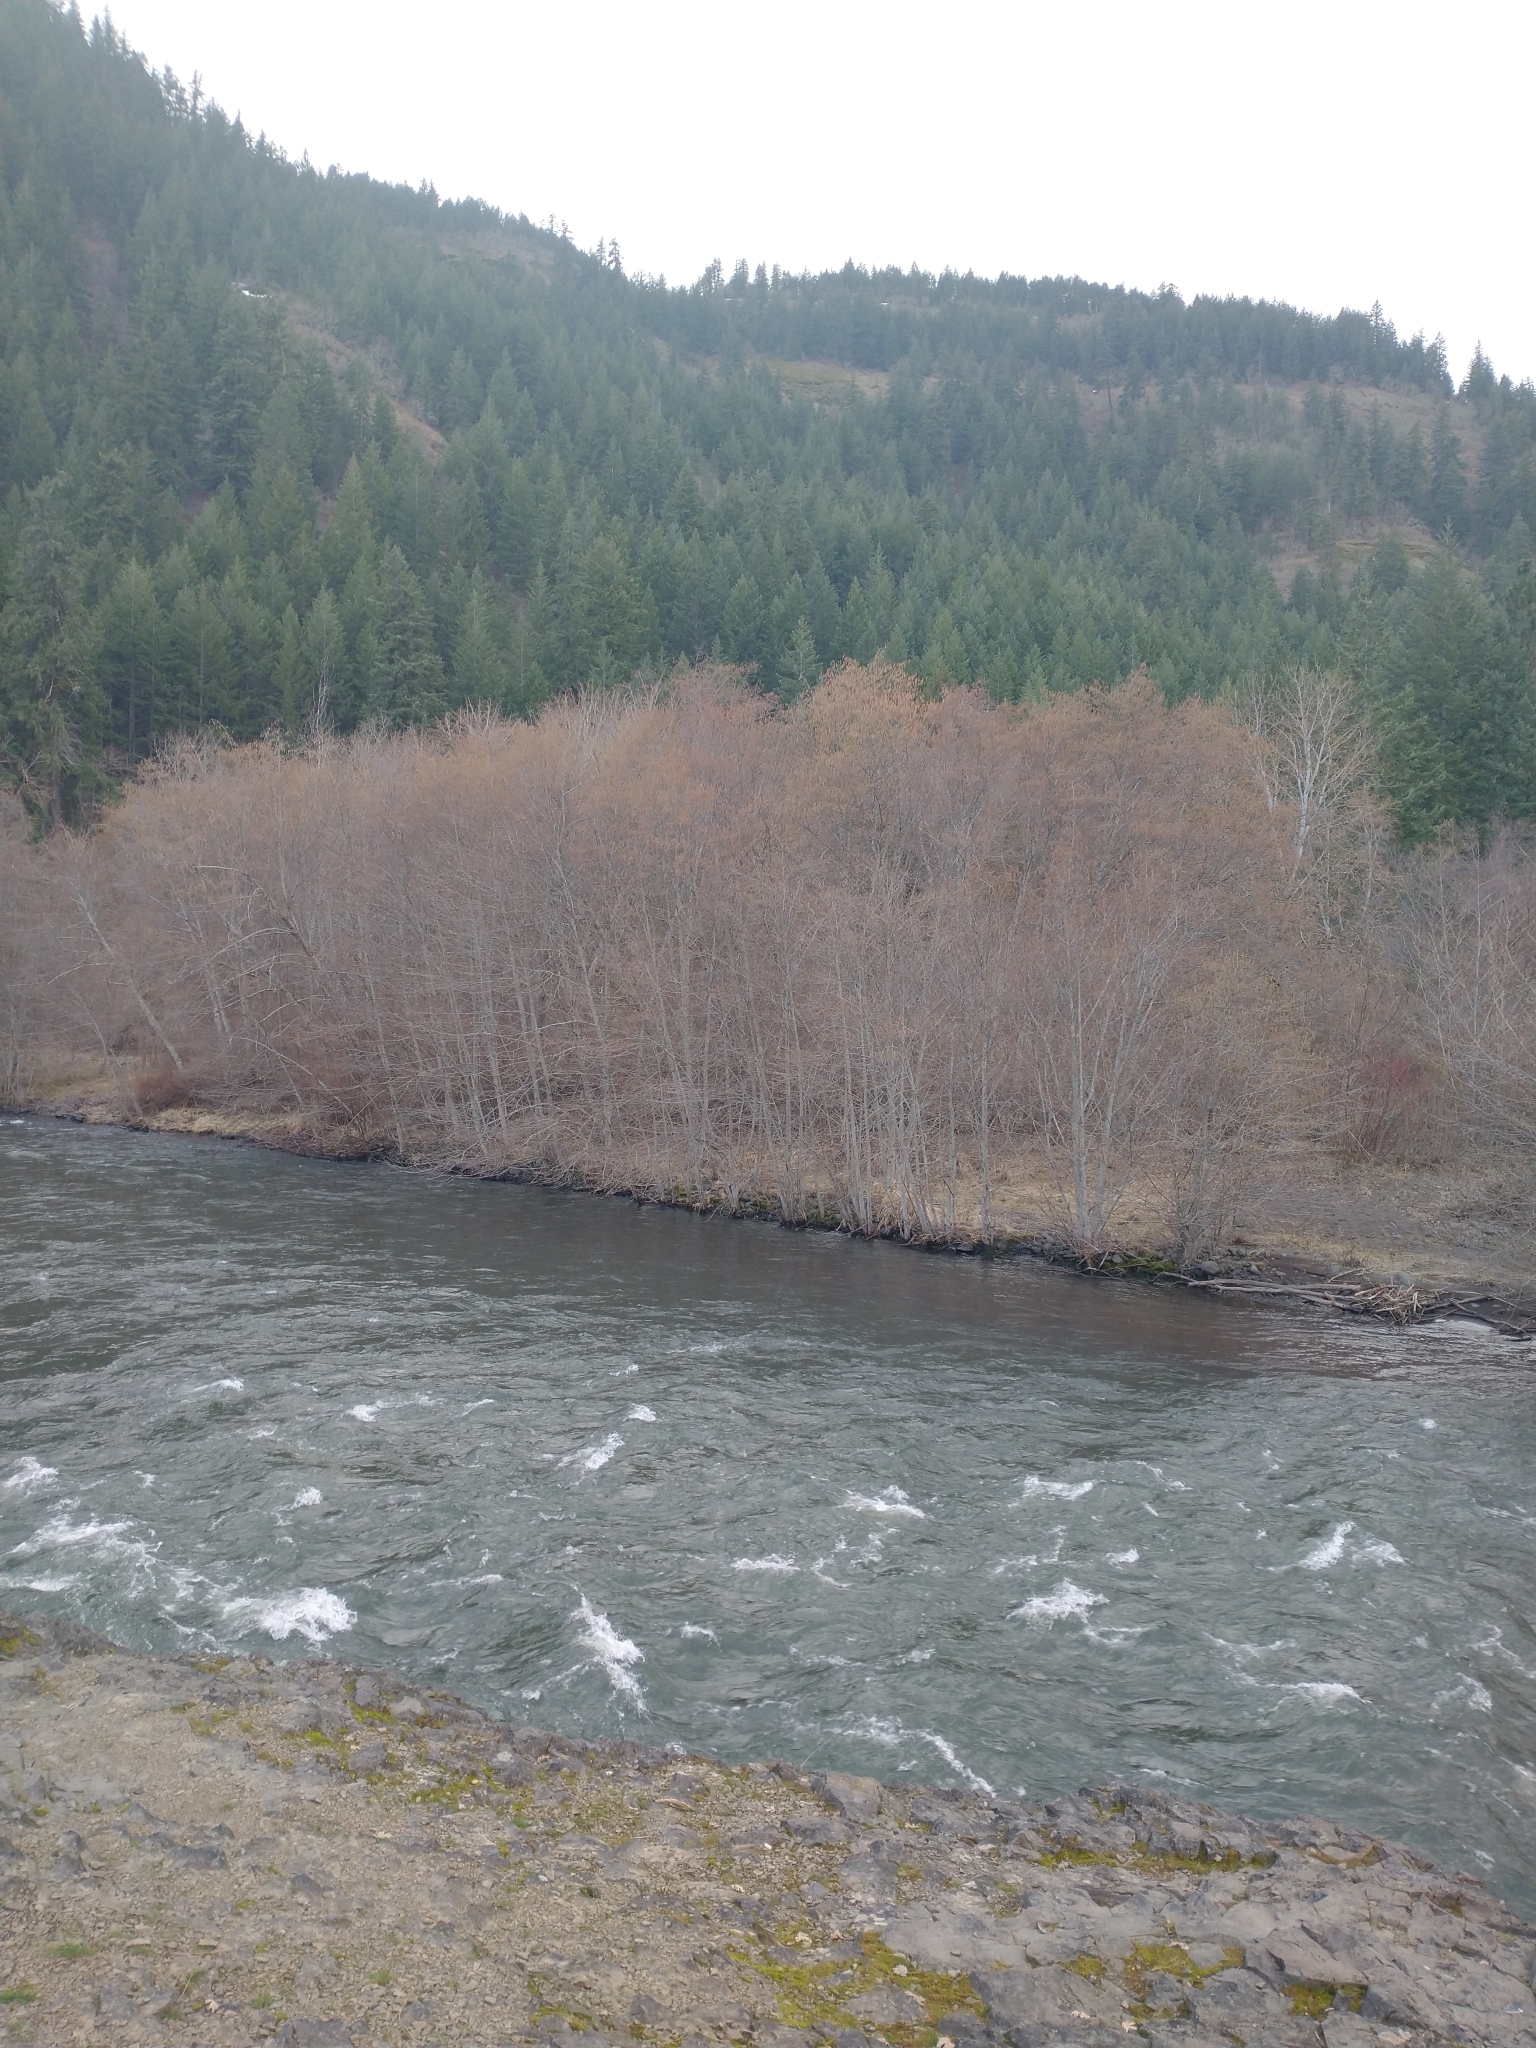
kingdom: Plantae
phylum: Tracheophyta
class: Pinopsida
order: Pinales
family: Pinaceae
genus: Pseudotsuga
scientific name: Pseudotsuga menziesii
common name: Douglas fir
